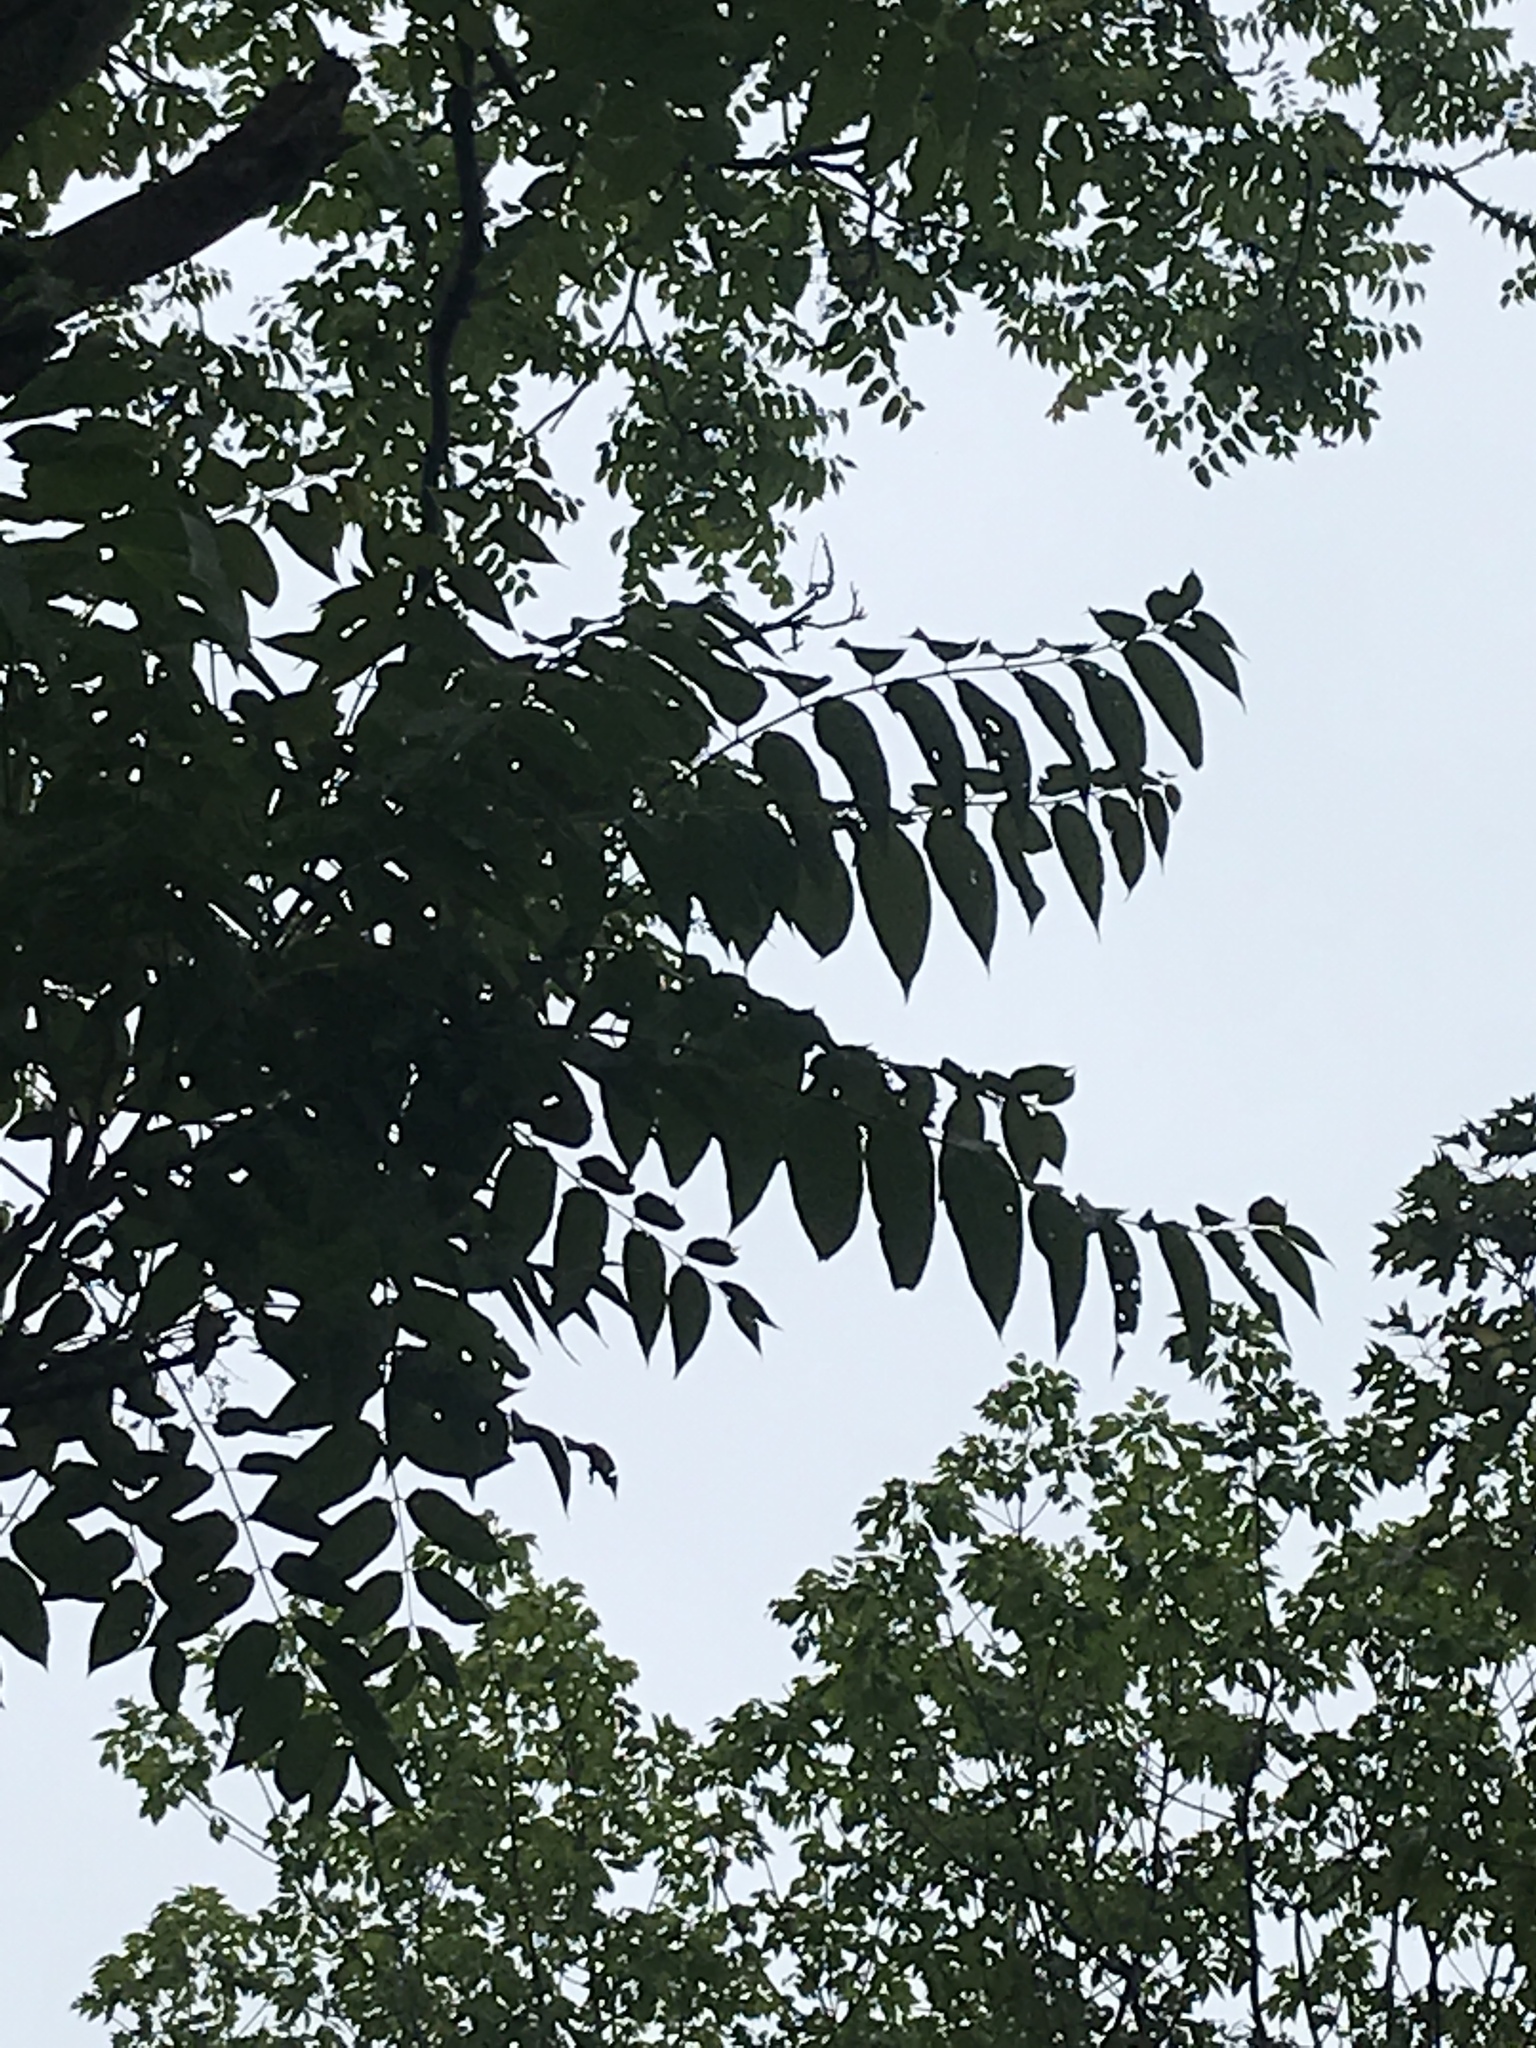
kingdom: Plantae
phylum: Tracheophyta
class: Magnoliopsida
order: Sapindales
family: Simaroubaceae
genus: Ailanthus
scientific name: Ailanthus altissima
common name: Tree-of-heaven
